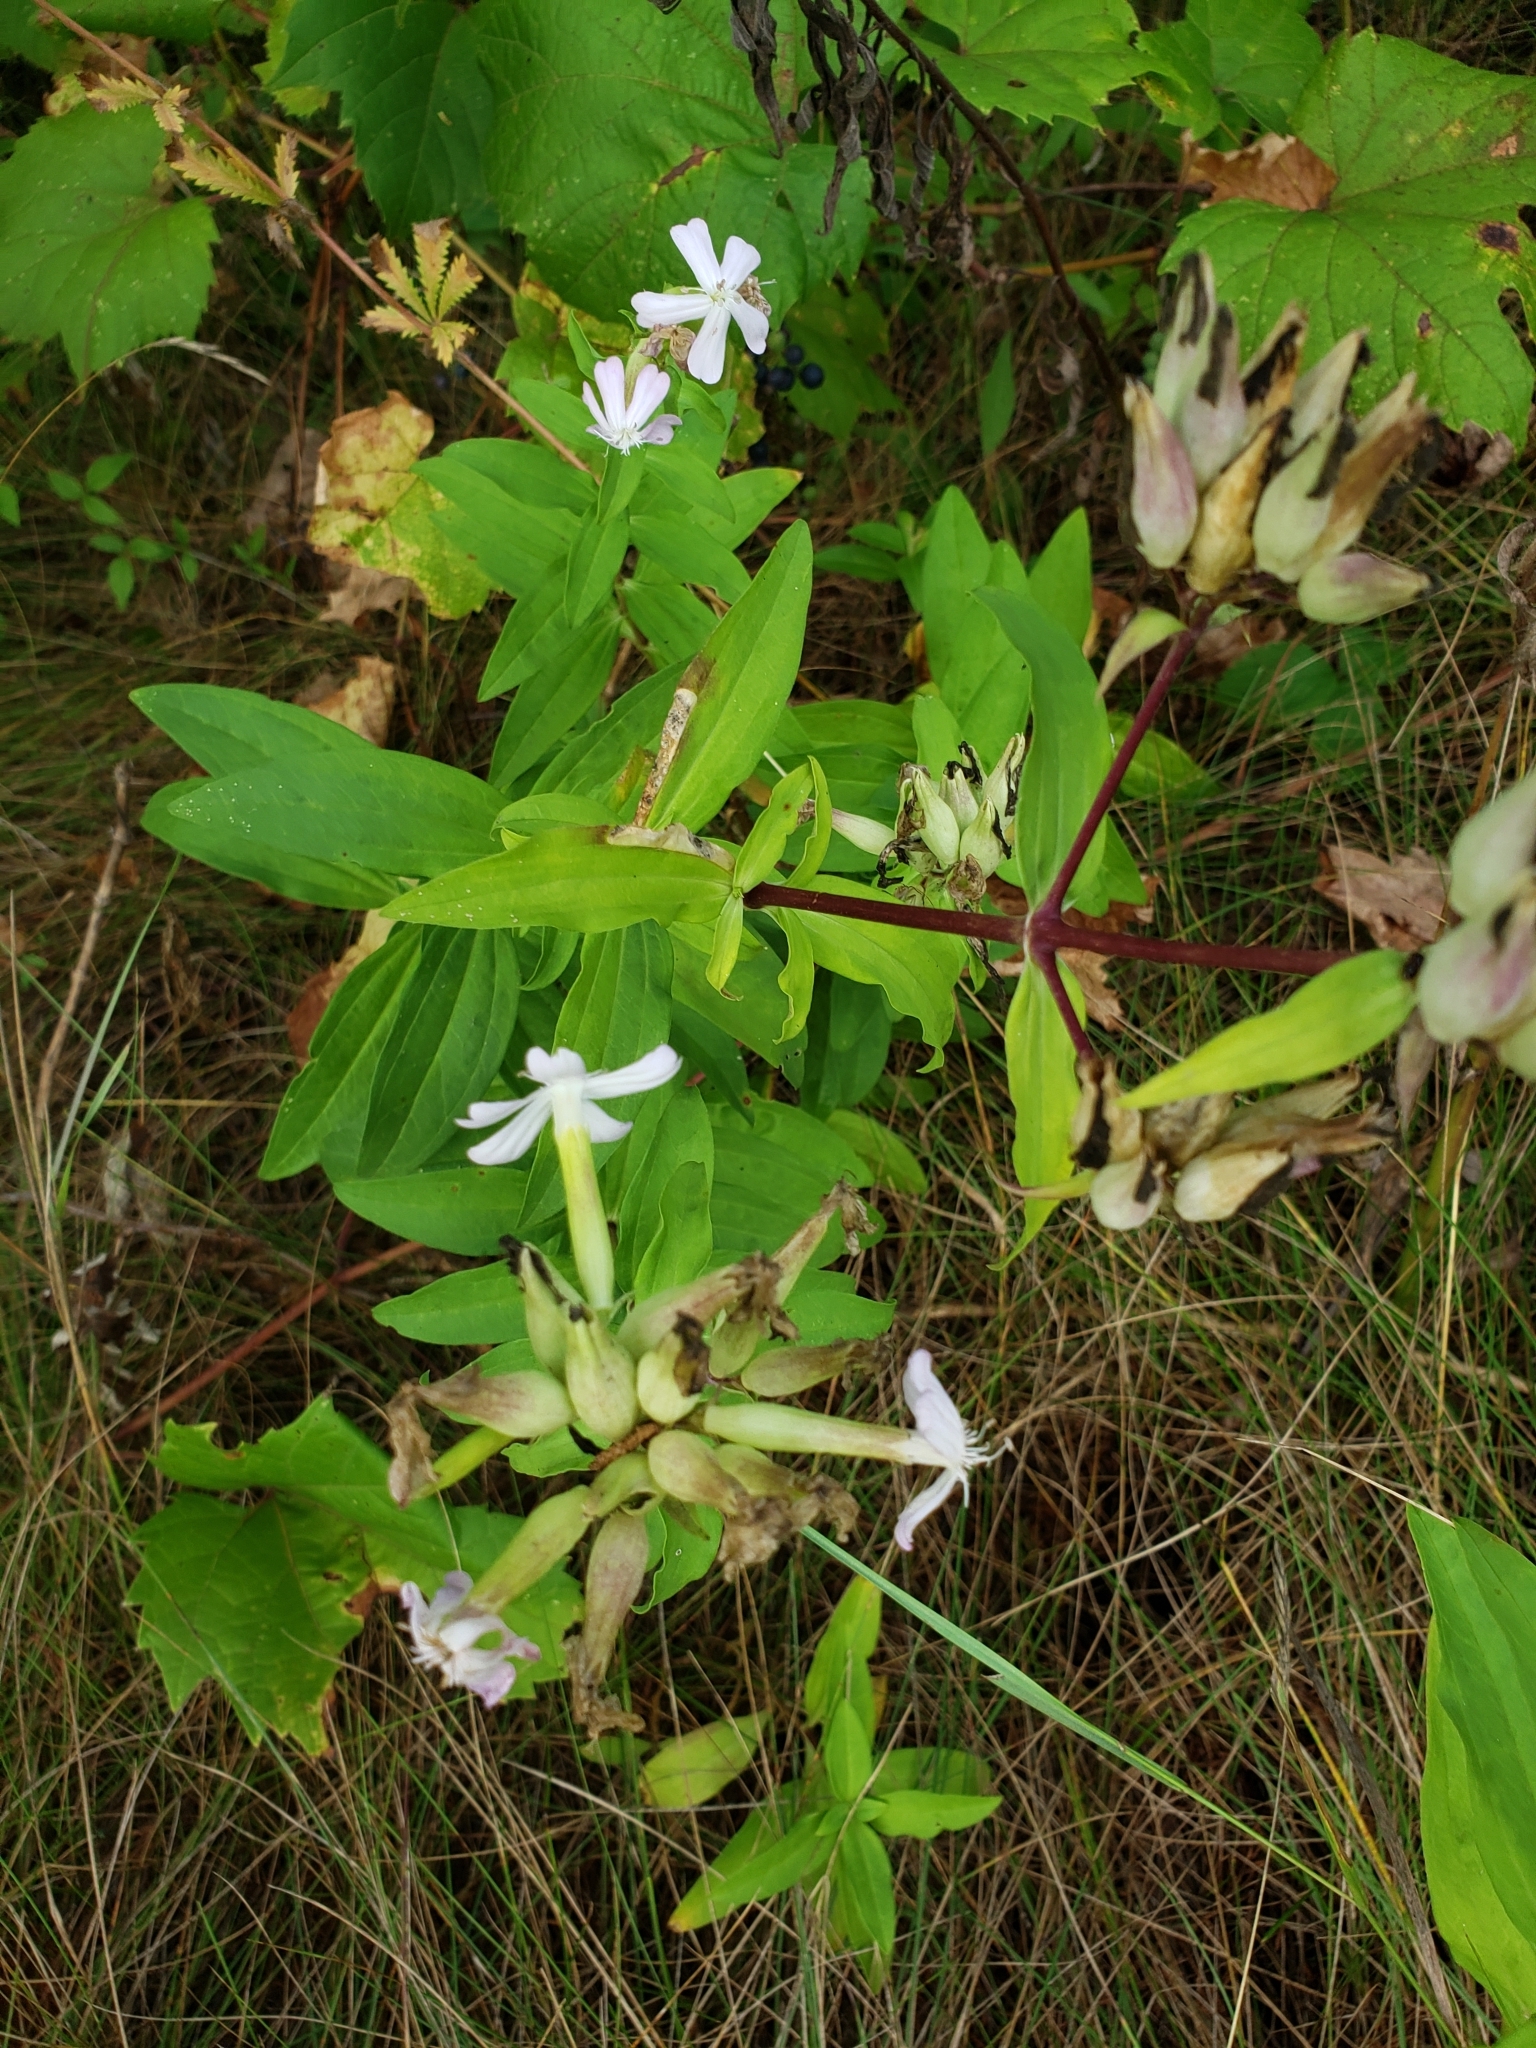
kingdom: Plantae
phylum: Tracheophyta
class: Magnoliopsida
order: Caryophyllales
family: Caryophyllaceae
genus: Saponaria
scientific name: Saponaria officinalis
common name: Soapwort
